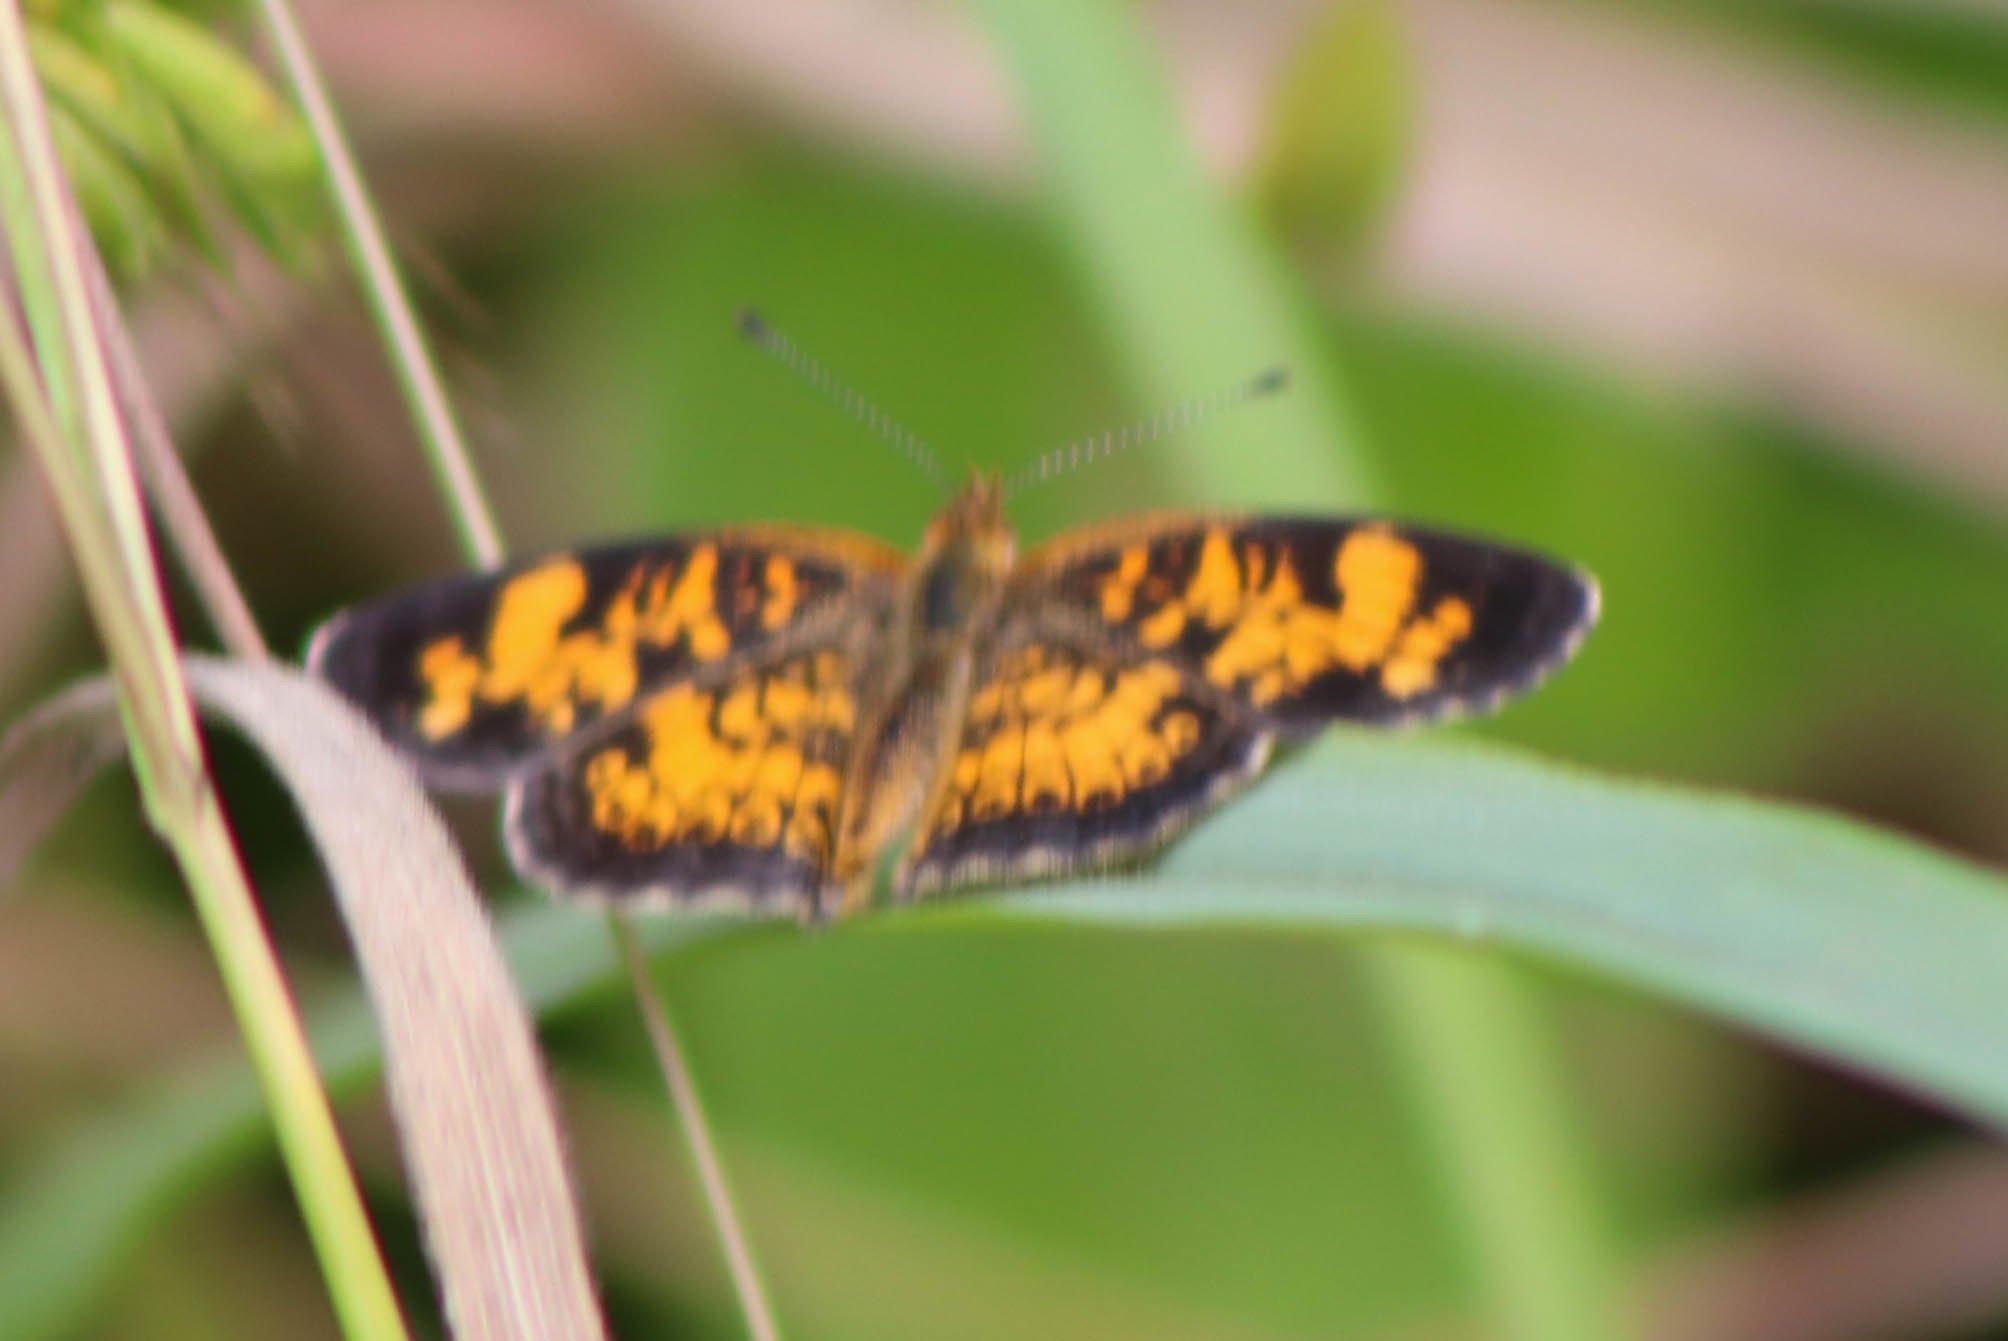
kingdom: Animalia
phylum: Arthropoda
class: Insecta
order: Lepidoptera
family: Nymphalidae
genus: Phyciodes
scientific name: Phyciodes tharos
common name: Pearl crescent
